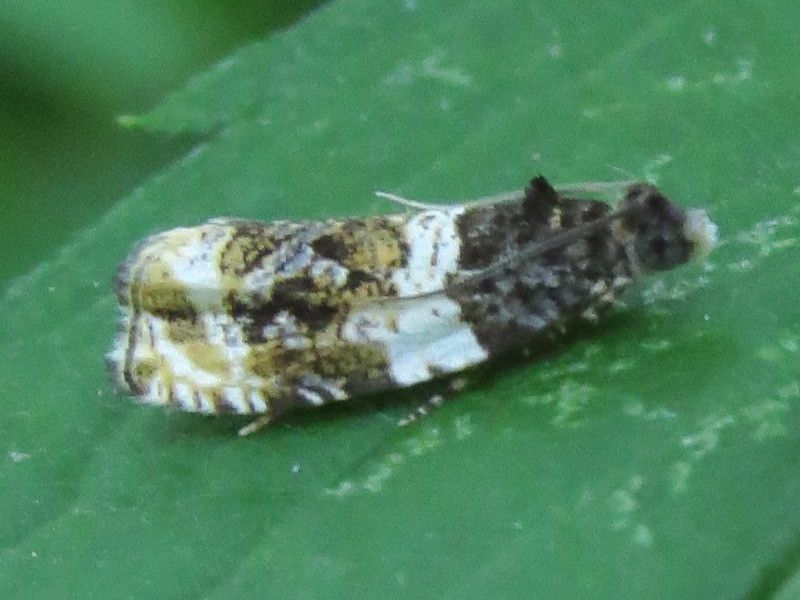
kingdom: Animalia
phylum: Arthropoda
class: Insecta
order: Lepidoptera
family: Tortricidae
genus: Olethreutes
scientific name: Olethreutes fasciatana
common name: Banded olethreutes moth
